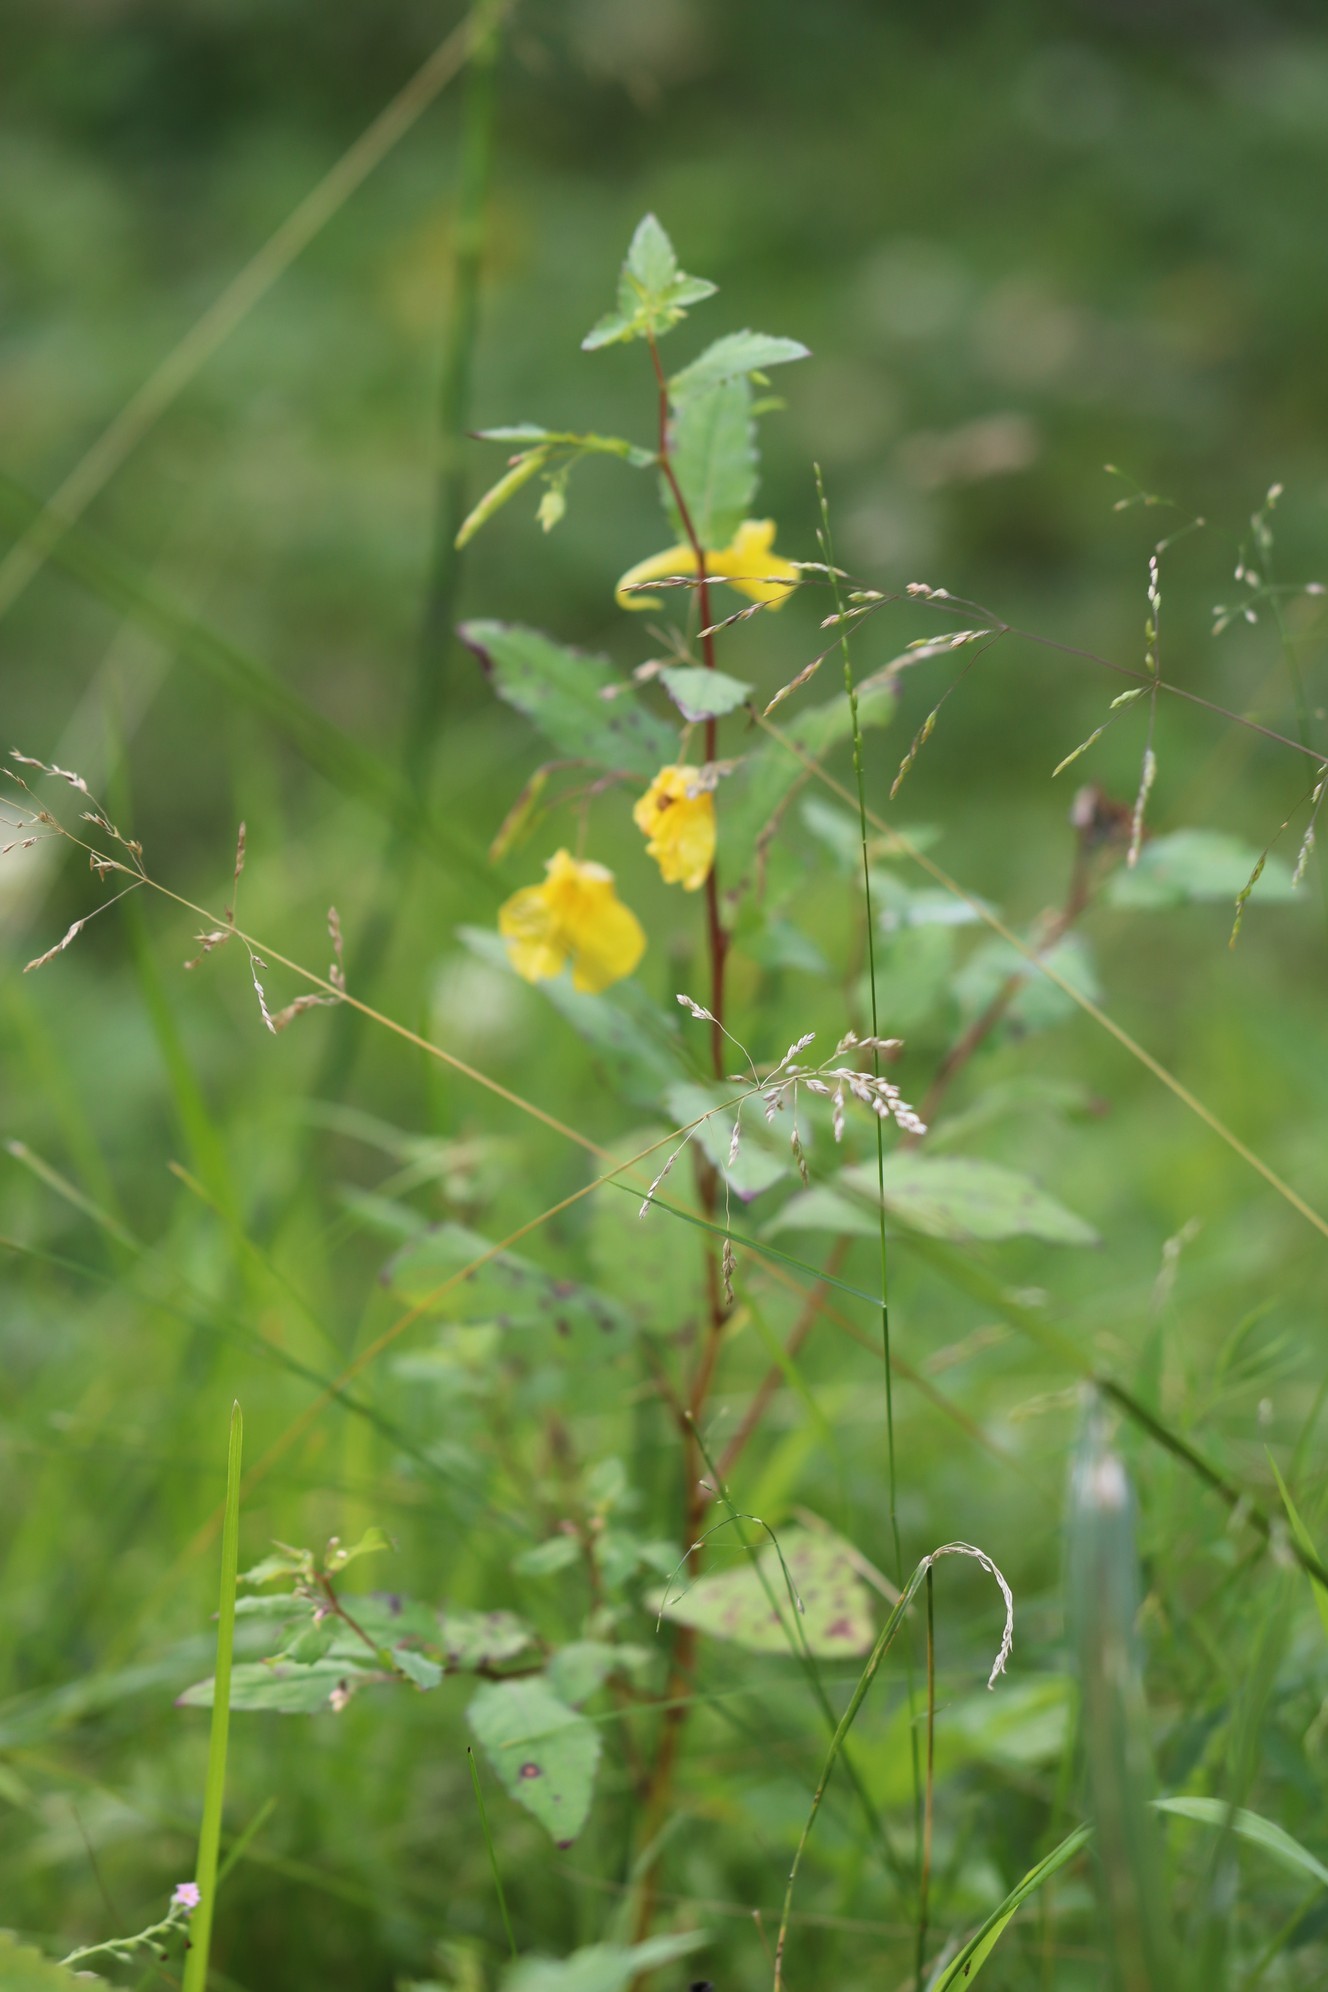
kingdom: Plantae
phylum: Tracheophyta
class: Magnoliopsida
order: Ericales
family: Balsaminaceae
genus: Impatiens
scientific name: Impatiens noli-tangere
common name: Touch-me-not balsam
